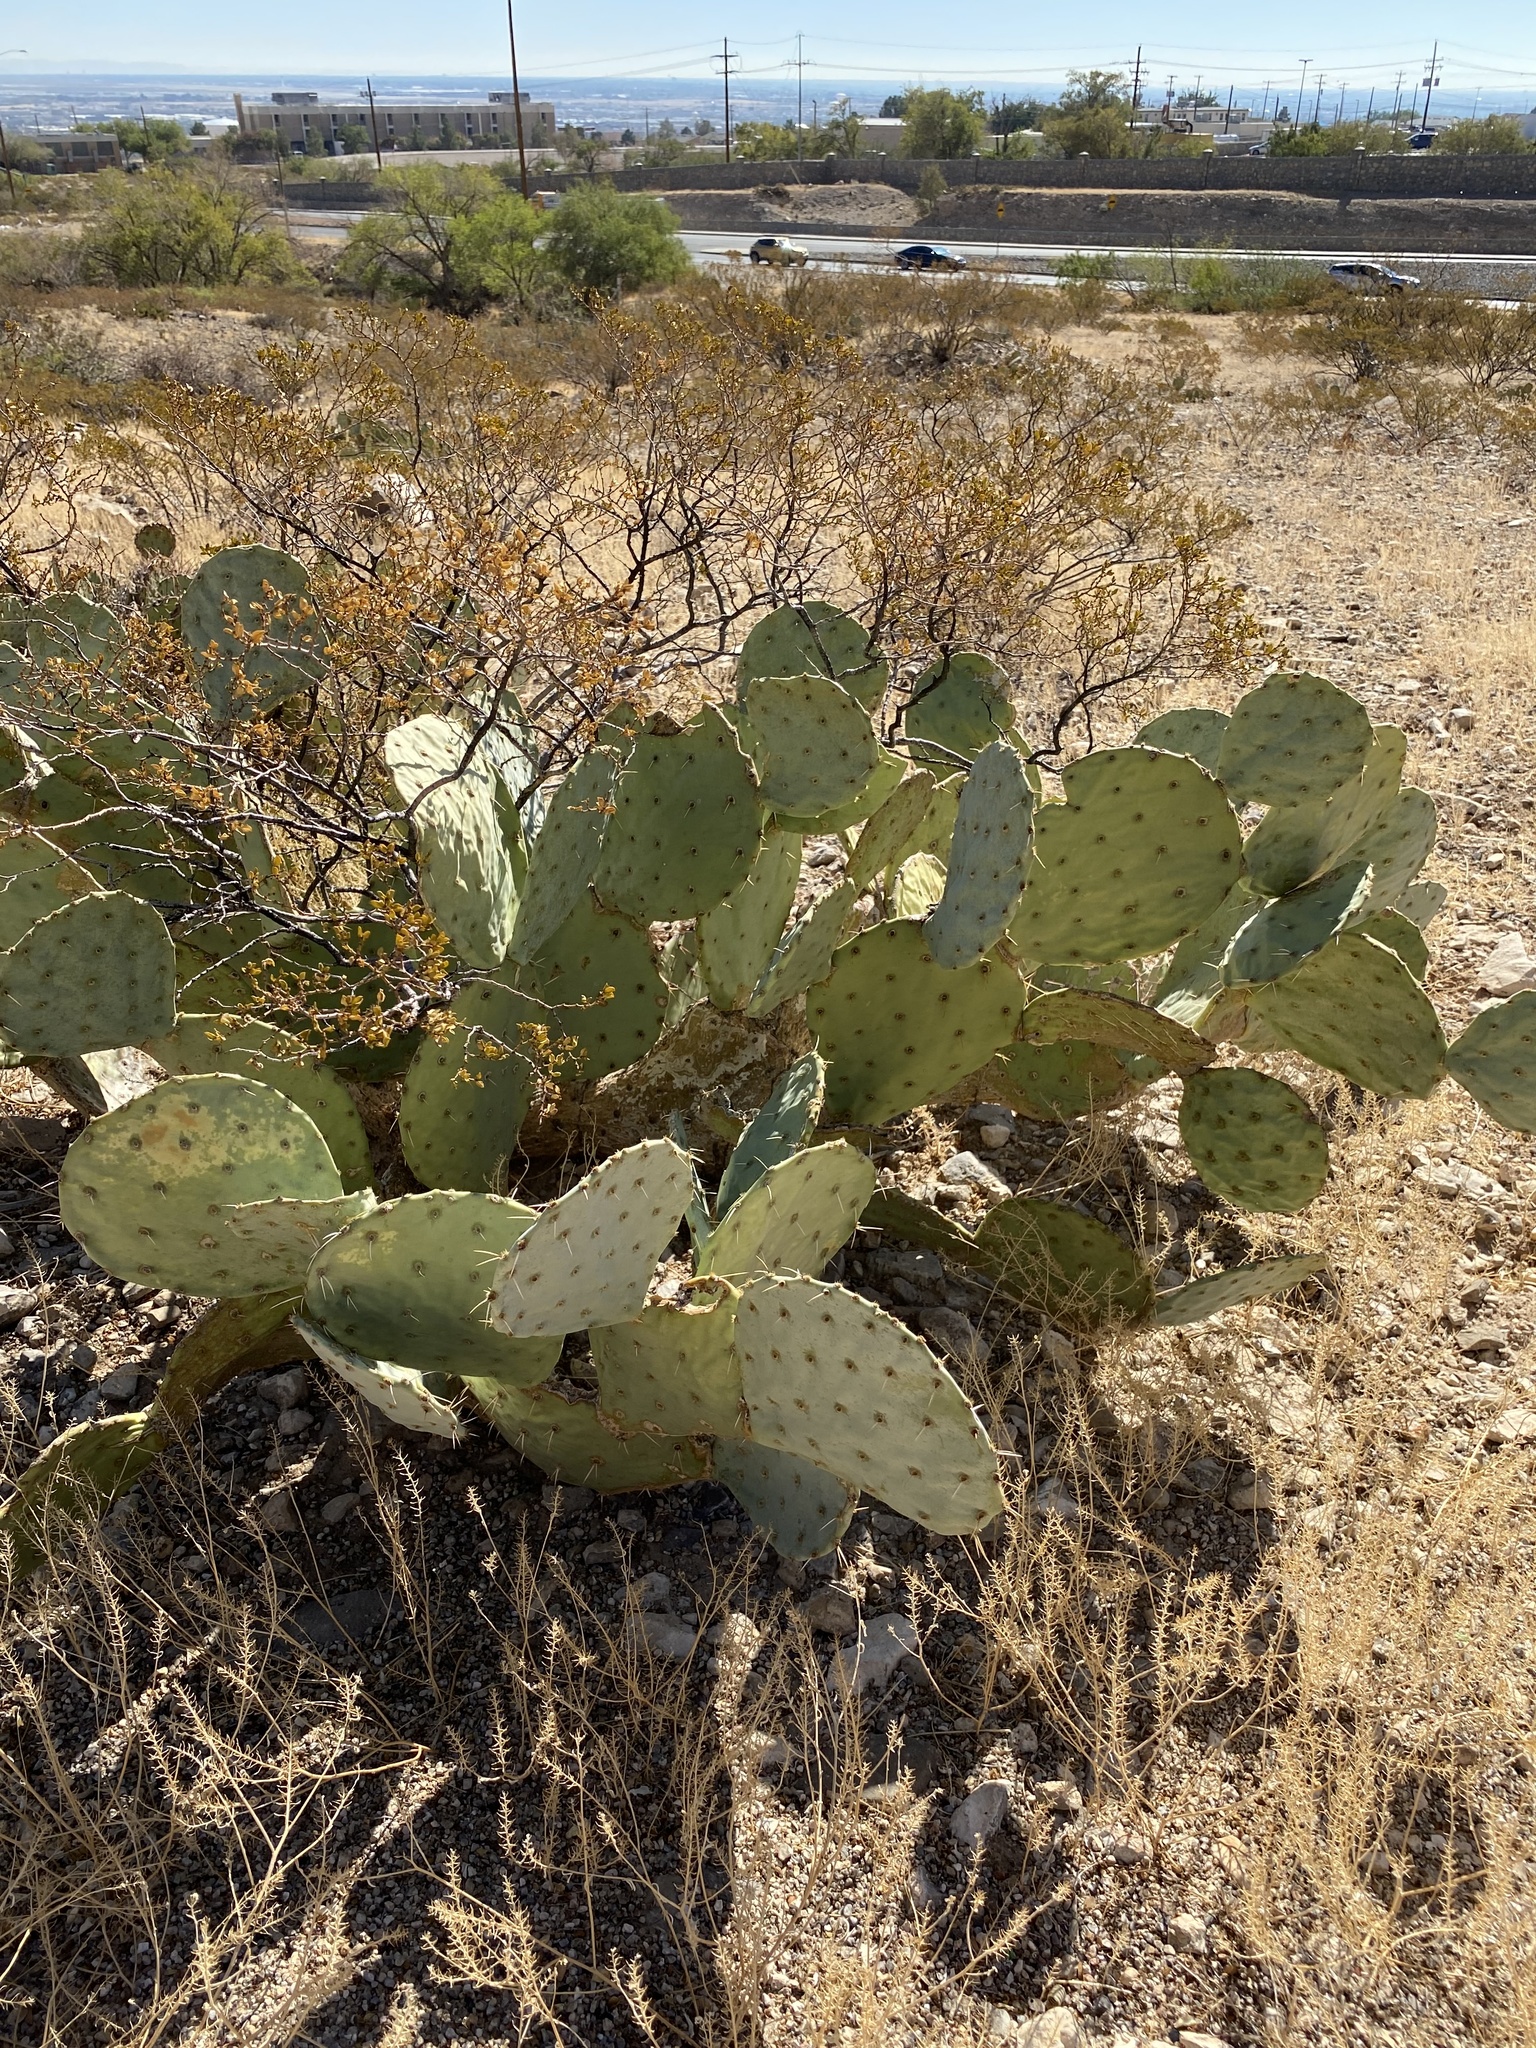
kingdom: Plantae
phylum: Tracheophyta
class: Magnoliopsida
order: Caryophyllales
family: Cactaceae
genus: Opuntia
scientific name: Opuntia orbiculata
